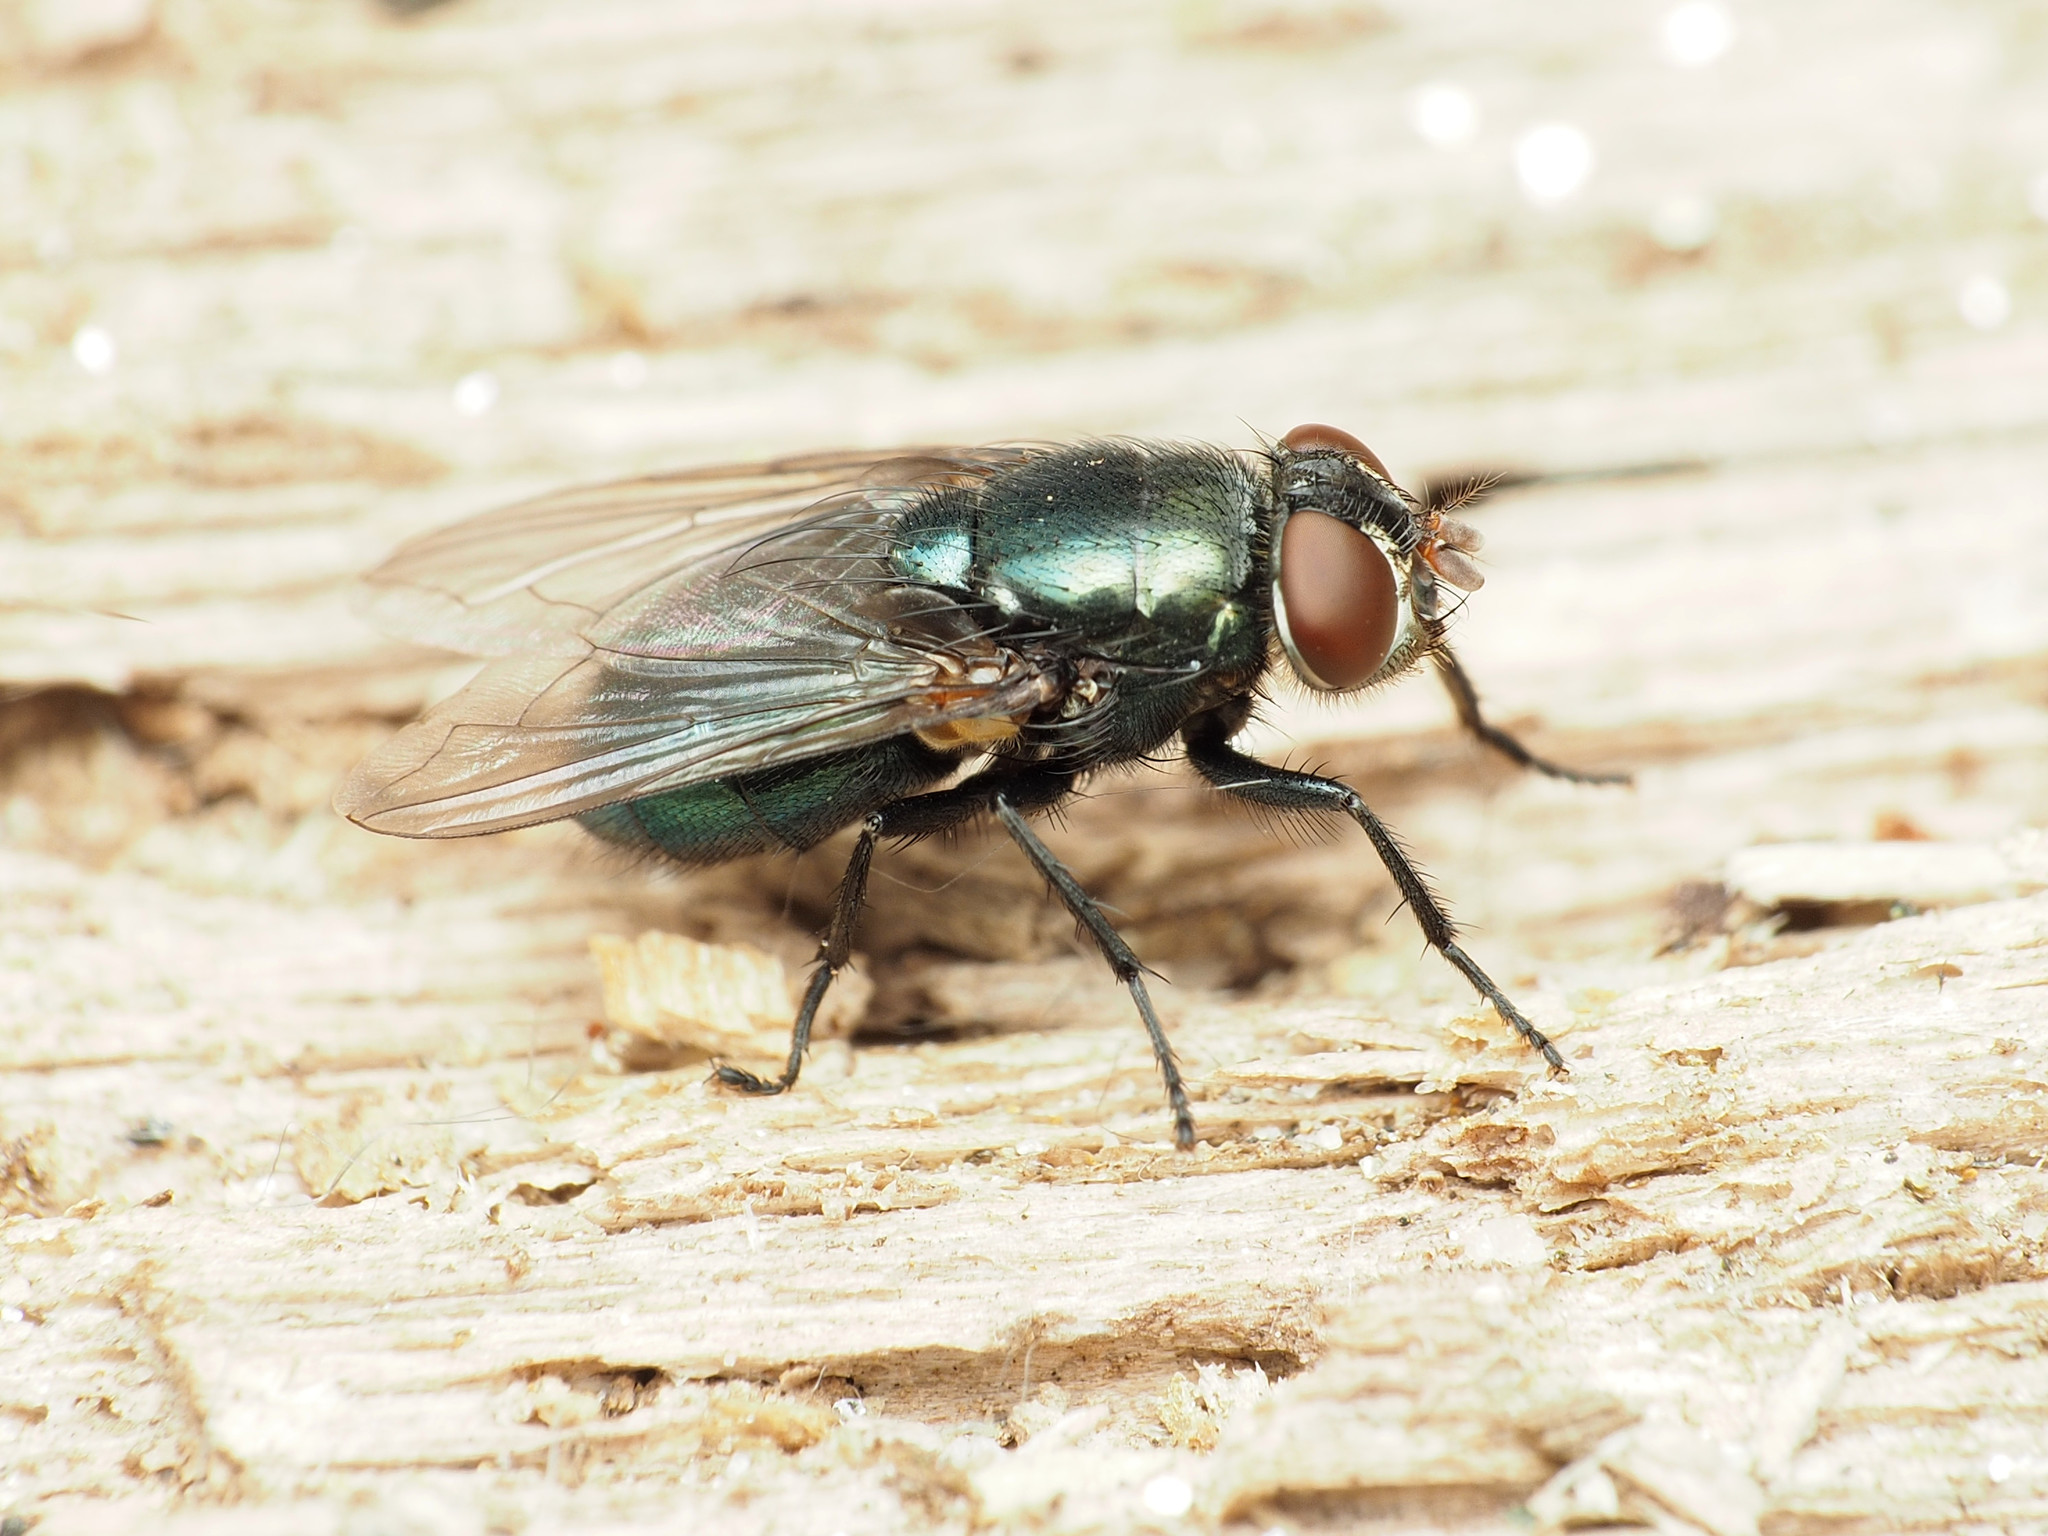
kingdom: Animalia
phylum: Arthropoda
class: Insecta
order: Diptera
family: Calliphoridae
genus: Phormia
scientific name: Phormia regina
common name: Black blow fly
